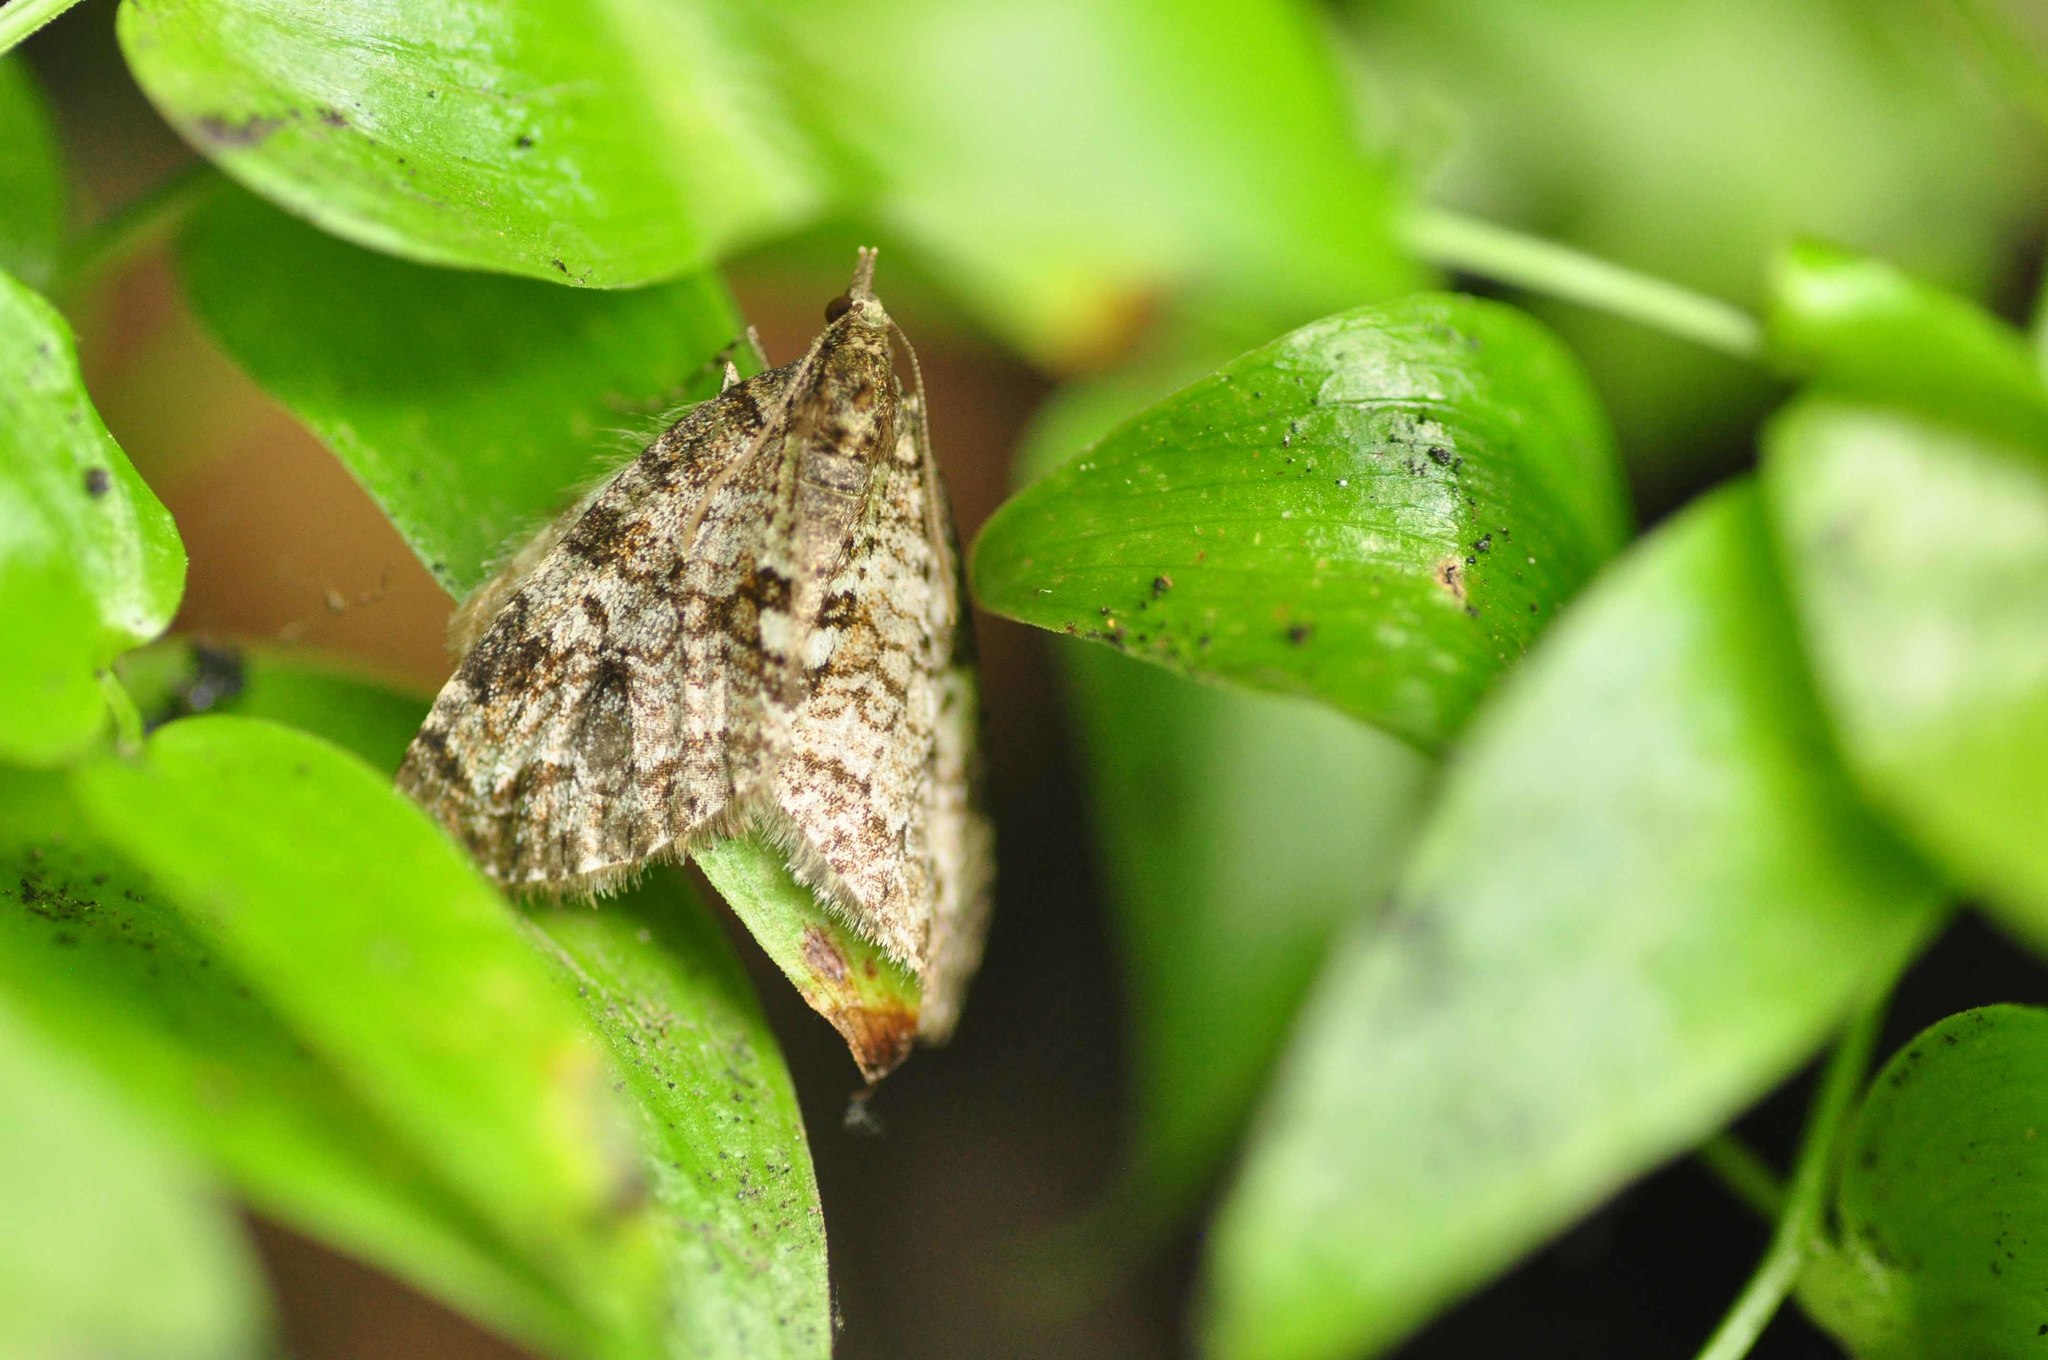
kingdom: Animalia
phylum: Arthropoda
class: Insecta
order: Lepidoptera
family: Geometridae
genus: Episauris
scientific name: Episauris kiliani
